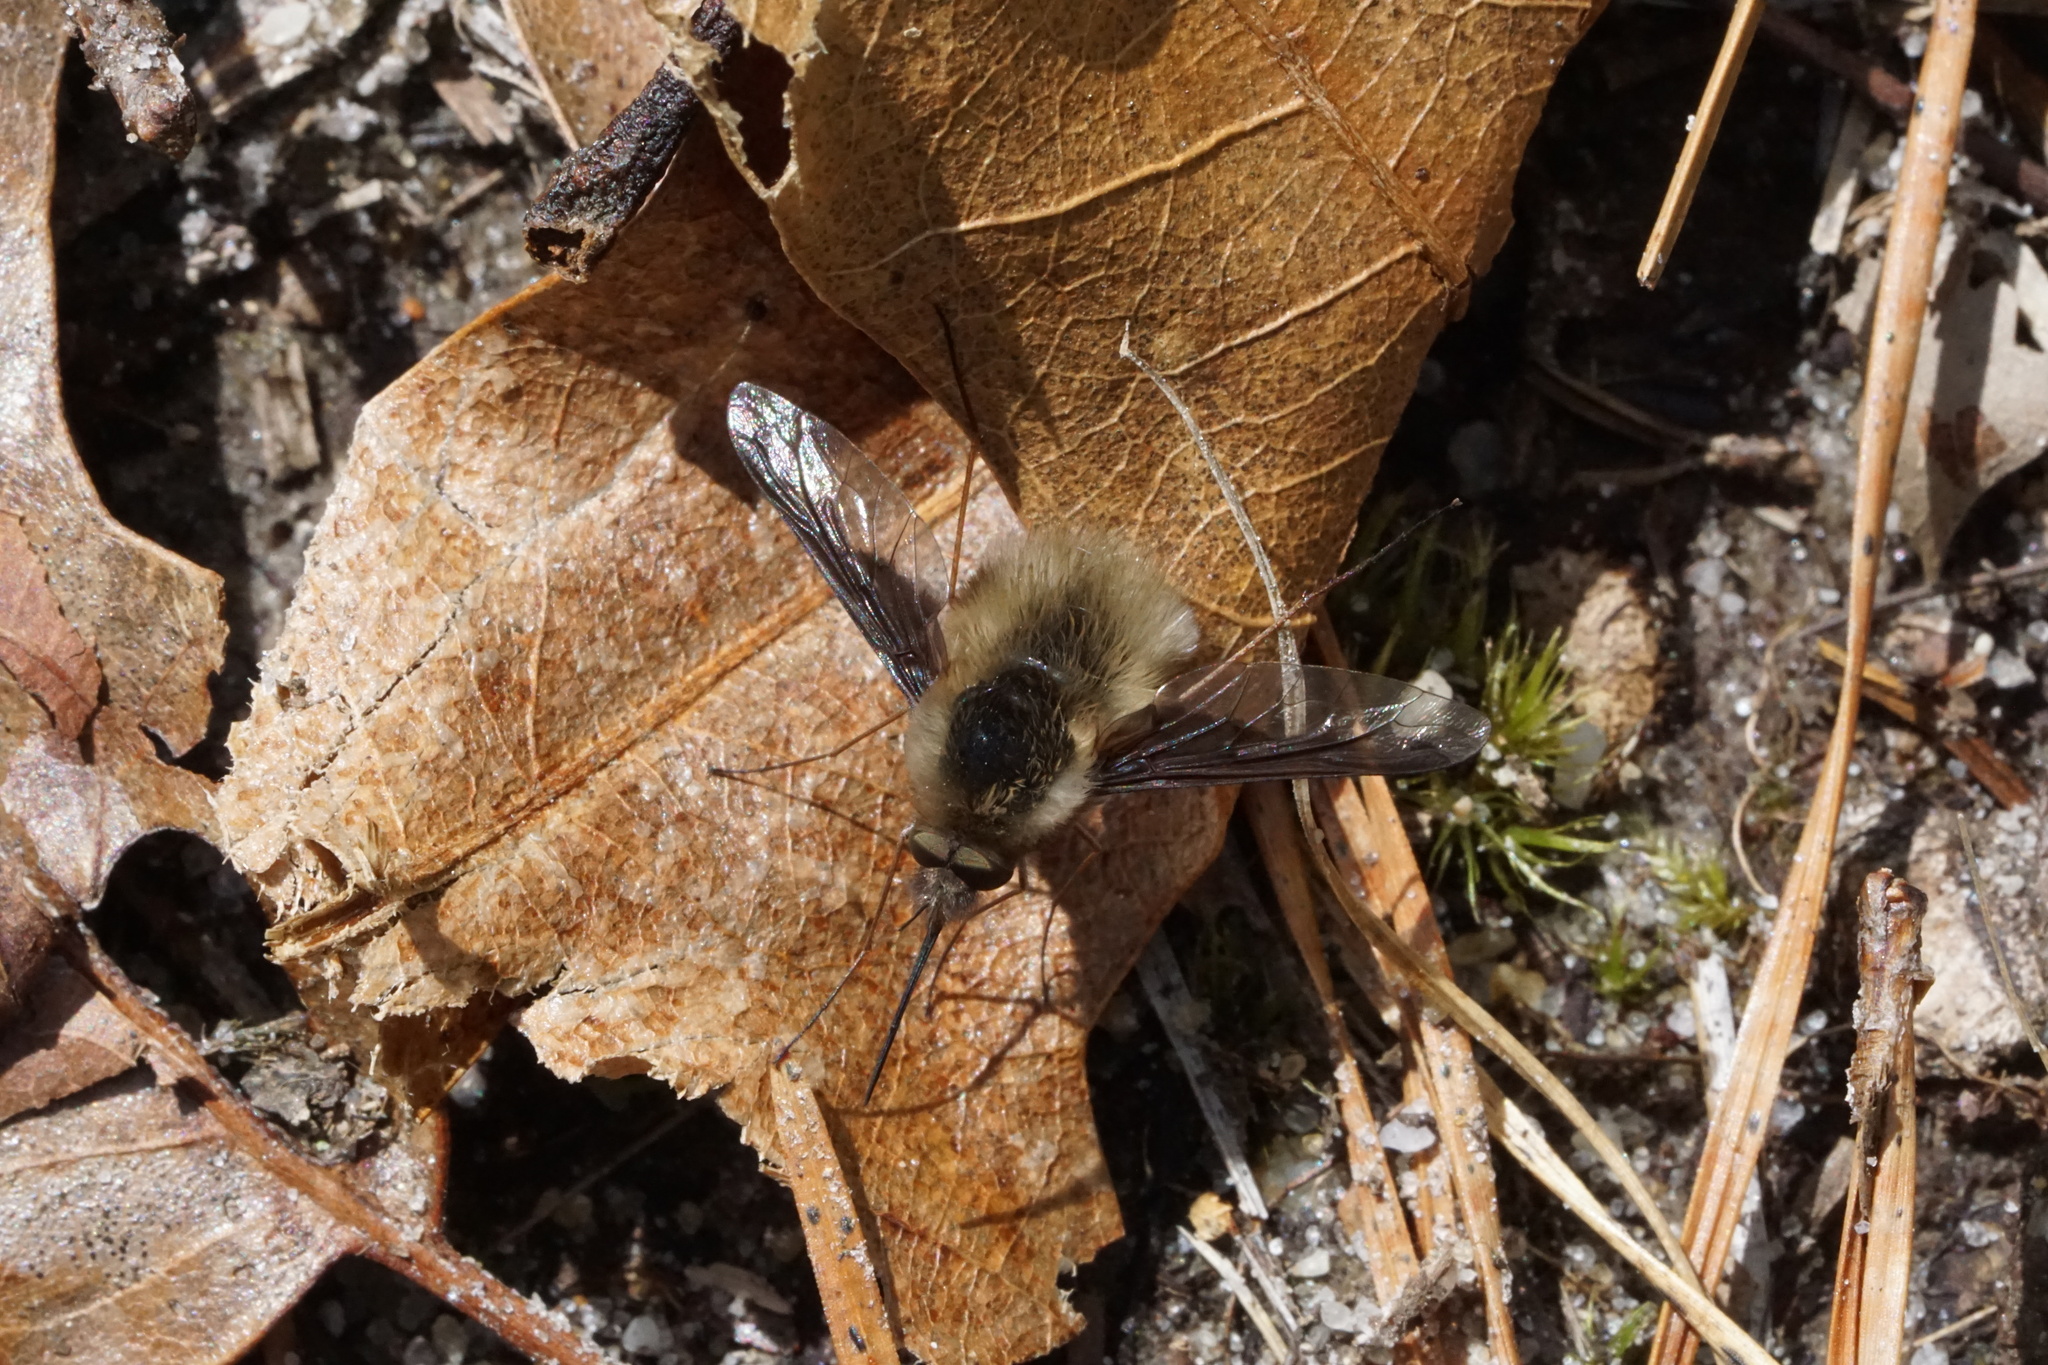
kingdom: Animalia
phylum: Arthropoda
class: Insecta
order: Diptera
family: Bombyliidae
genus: Bombylius
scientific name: Bombylius major
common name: Bee fly
